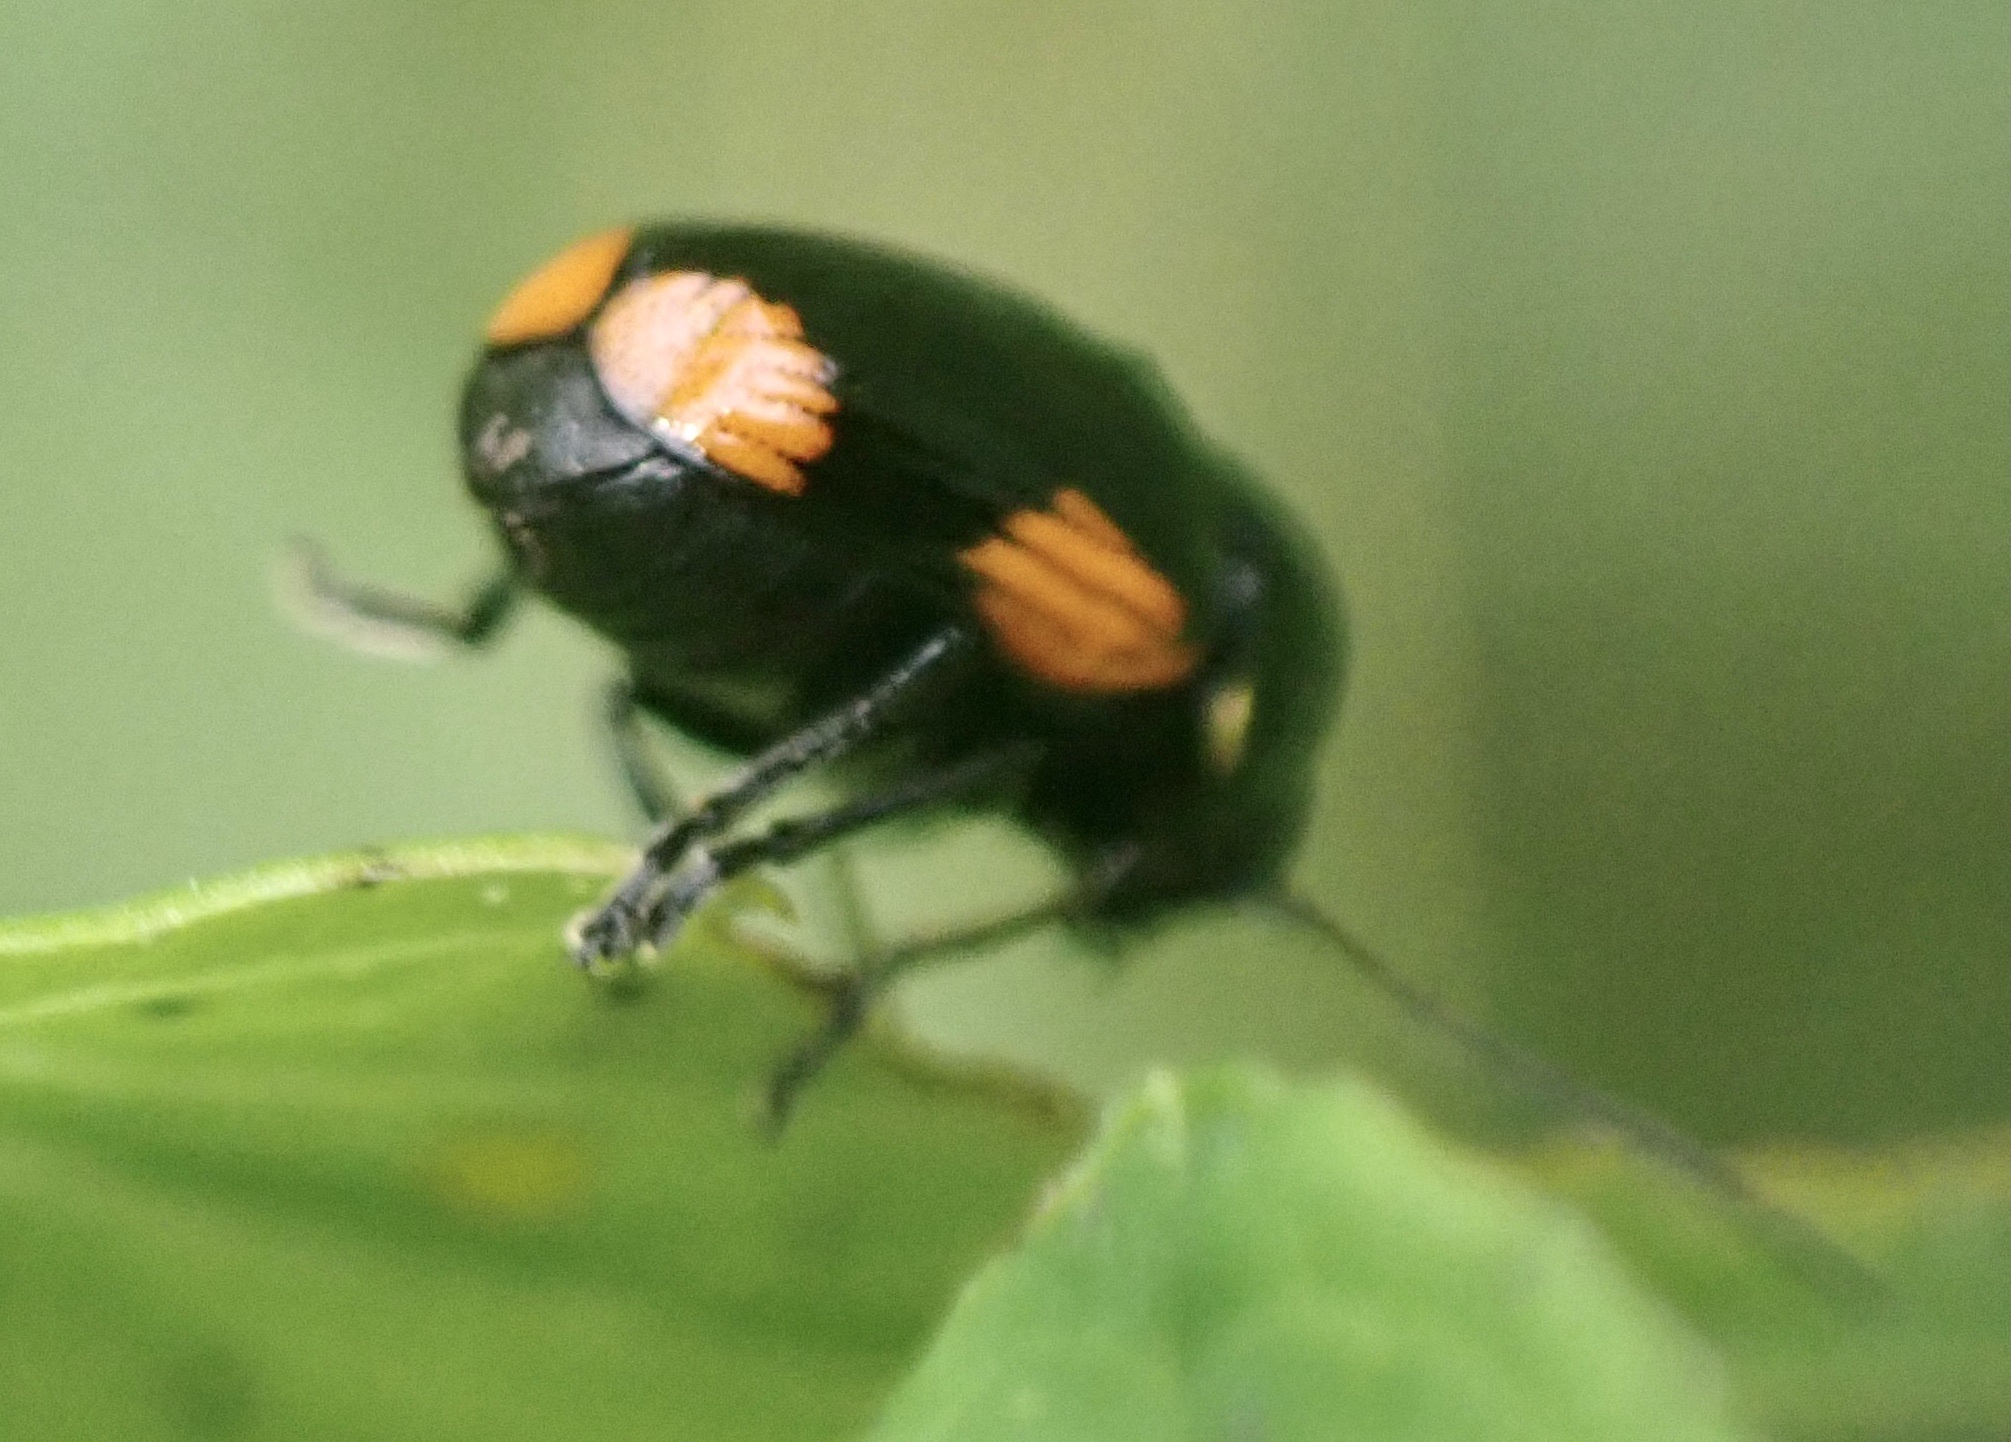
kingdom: Animalia
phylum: Arthropoda
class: Insecta
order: Coleoptera
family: Chrysomelidae
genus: Cryptocephalus
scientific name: Cryptocephalus moraei
